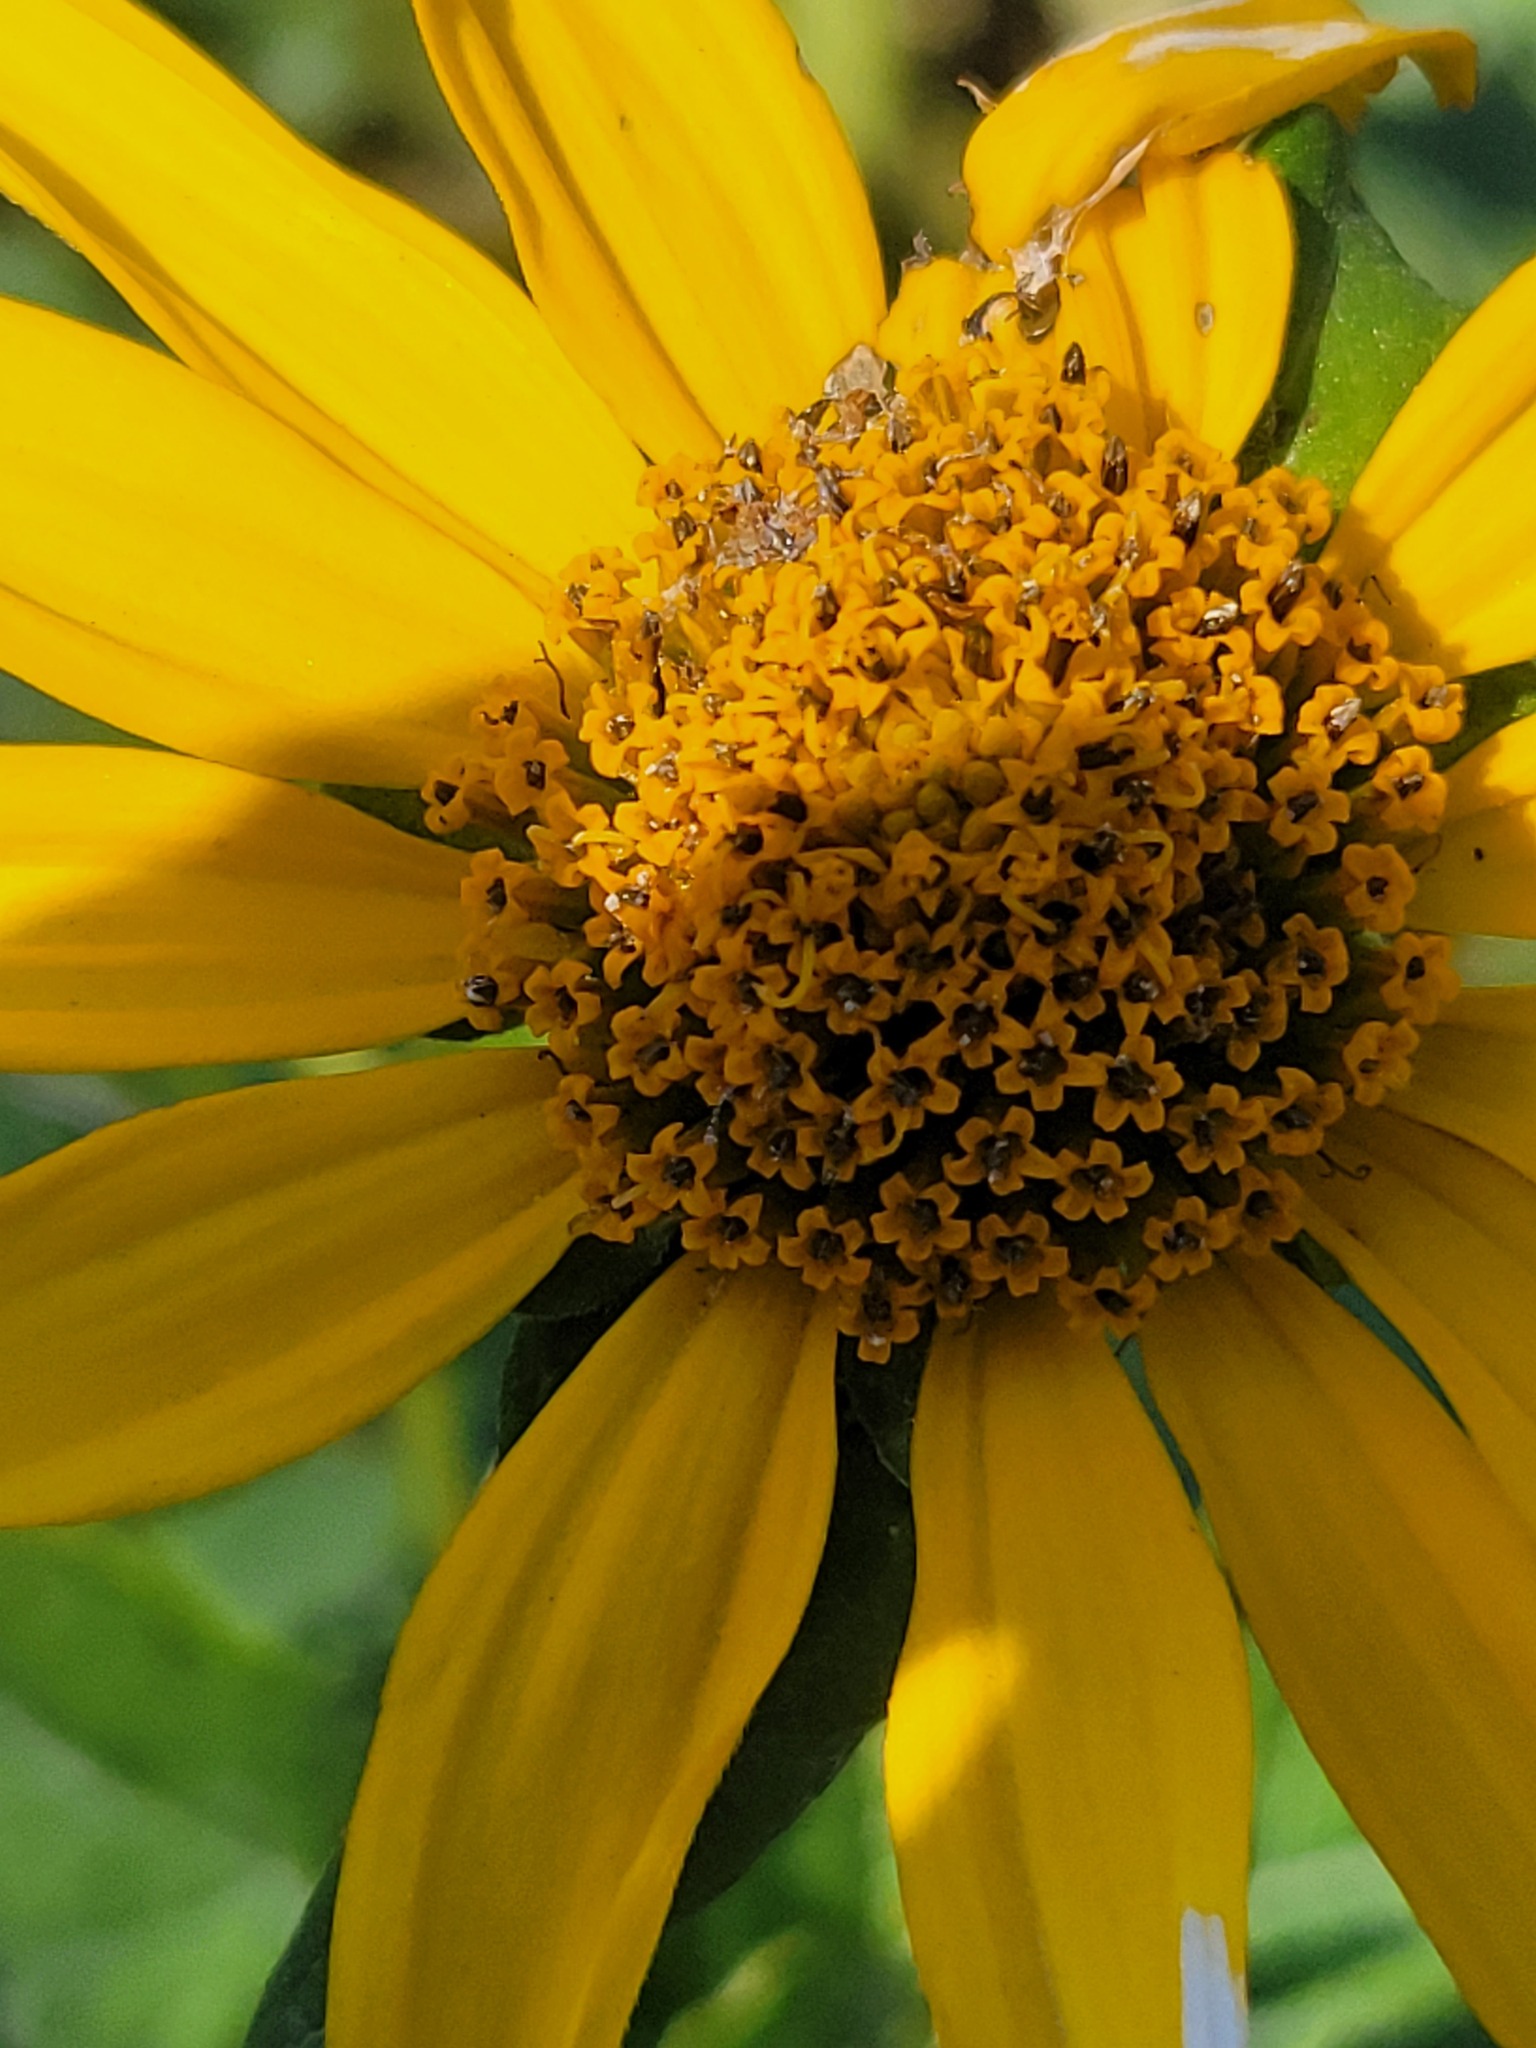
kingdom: Plantae
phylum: Tracheophyta
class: Magnoliopsida
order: Asterales
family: Asteraceae
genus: Heliopsis
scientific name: Heliopsis helianthoides
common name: False sunflower
